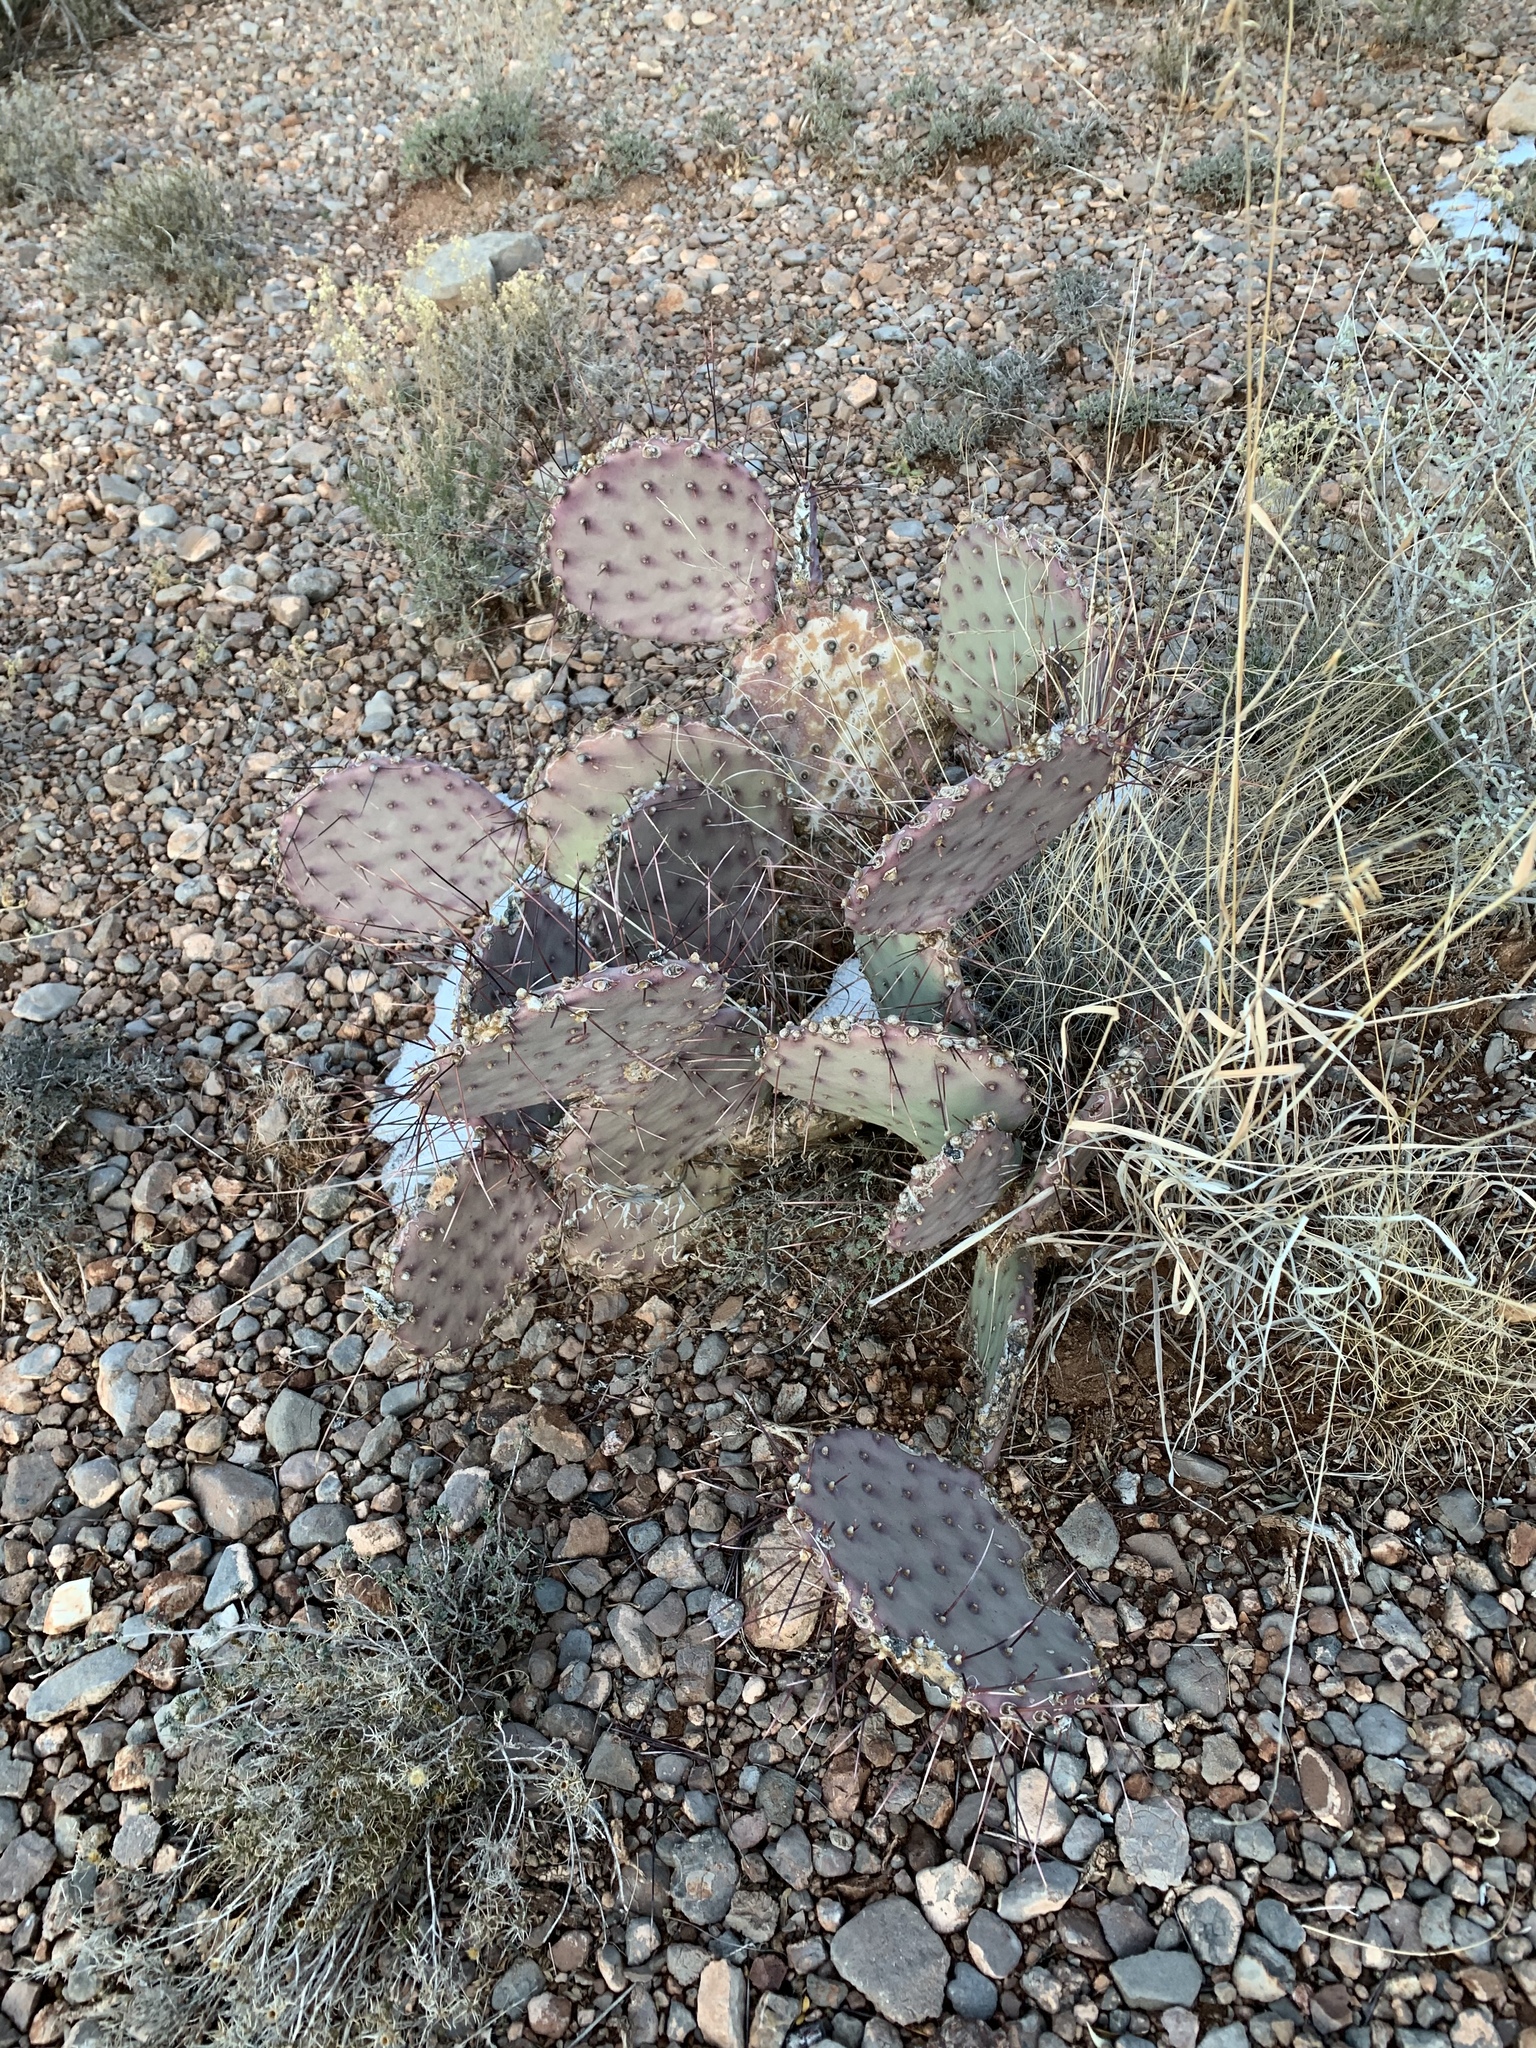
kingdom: Plantae
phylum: Tracheophyta
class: Magnoliopsida
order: Caryophyllales
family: Cactaceae
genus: Opuntia
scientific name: Opuntia macrocentra
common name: Purple prickly-pear
